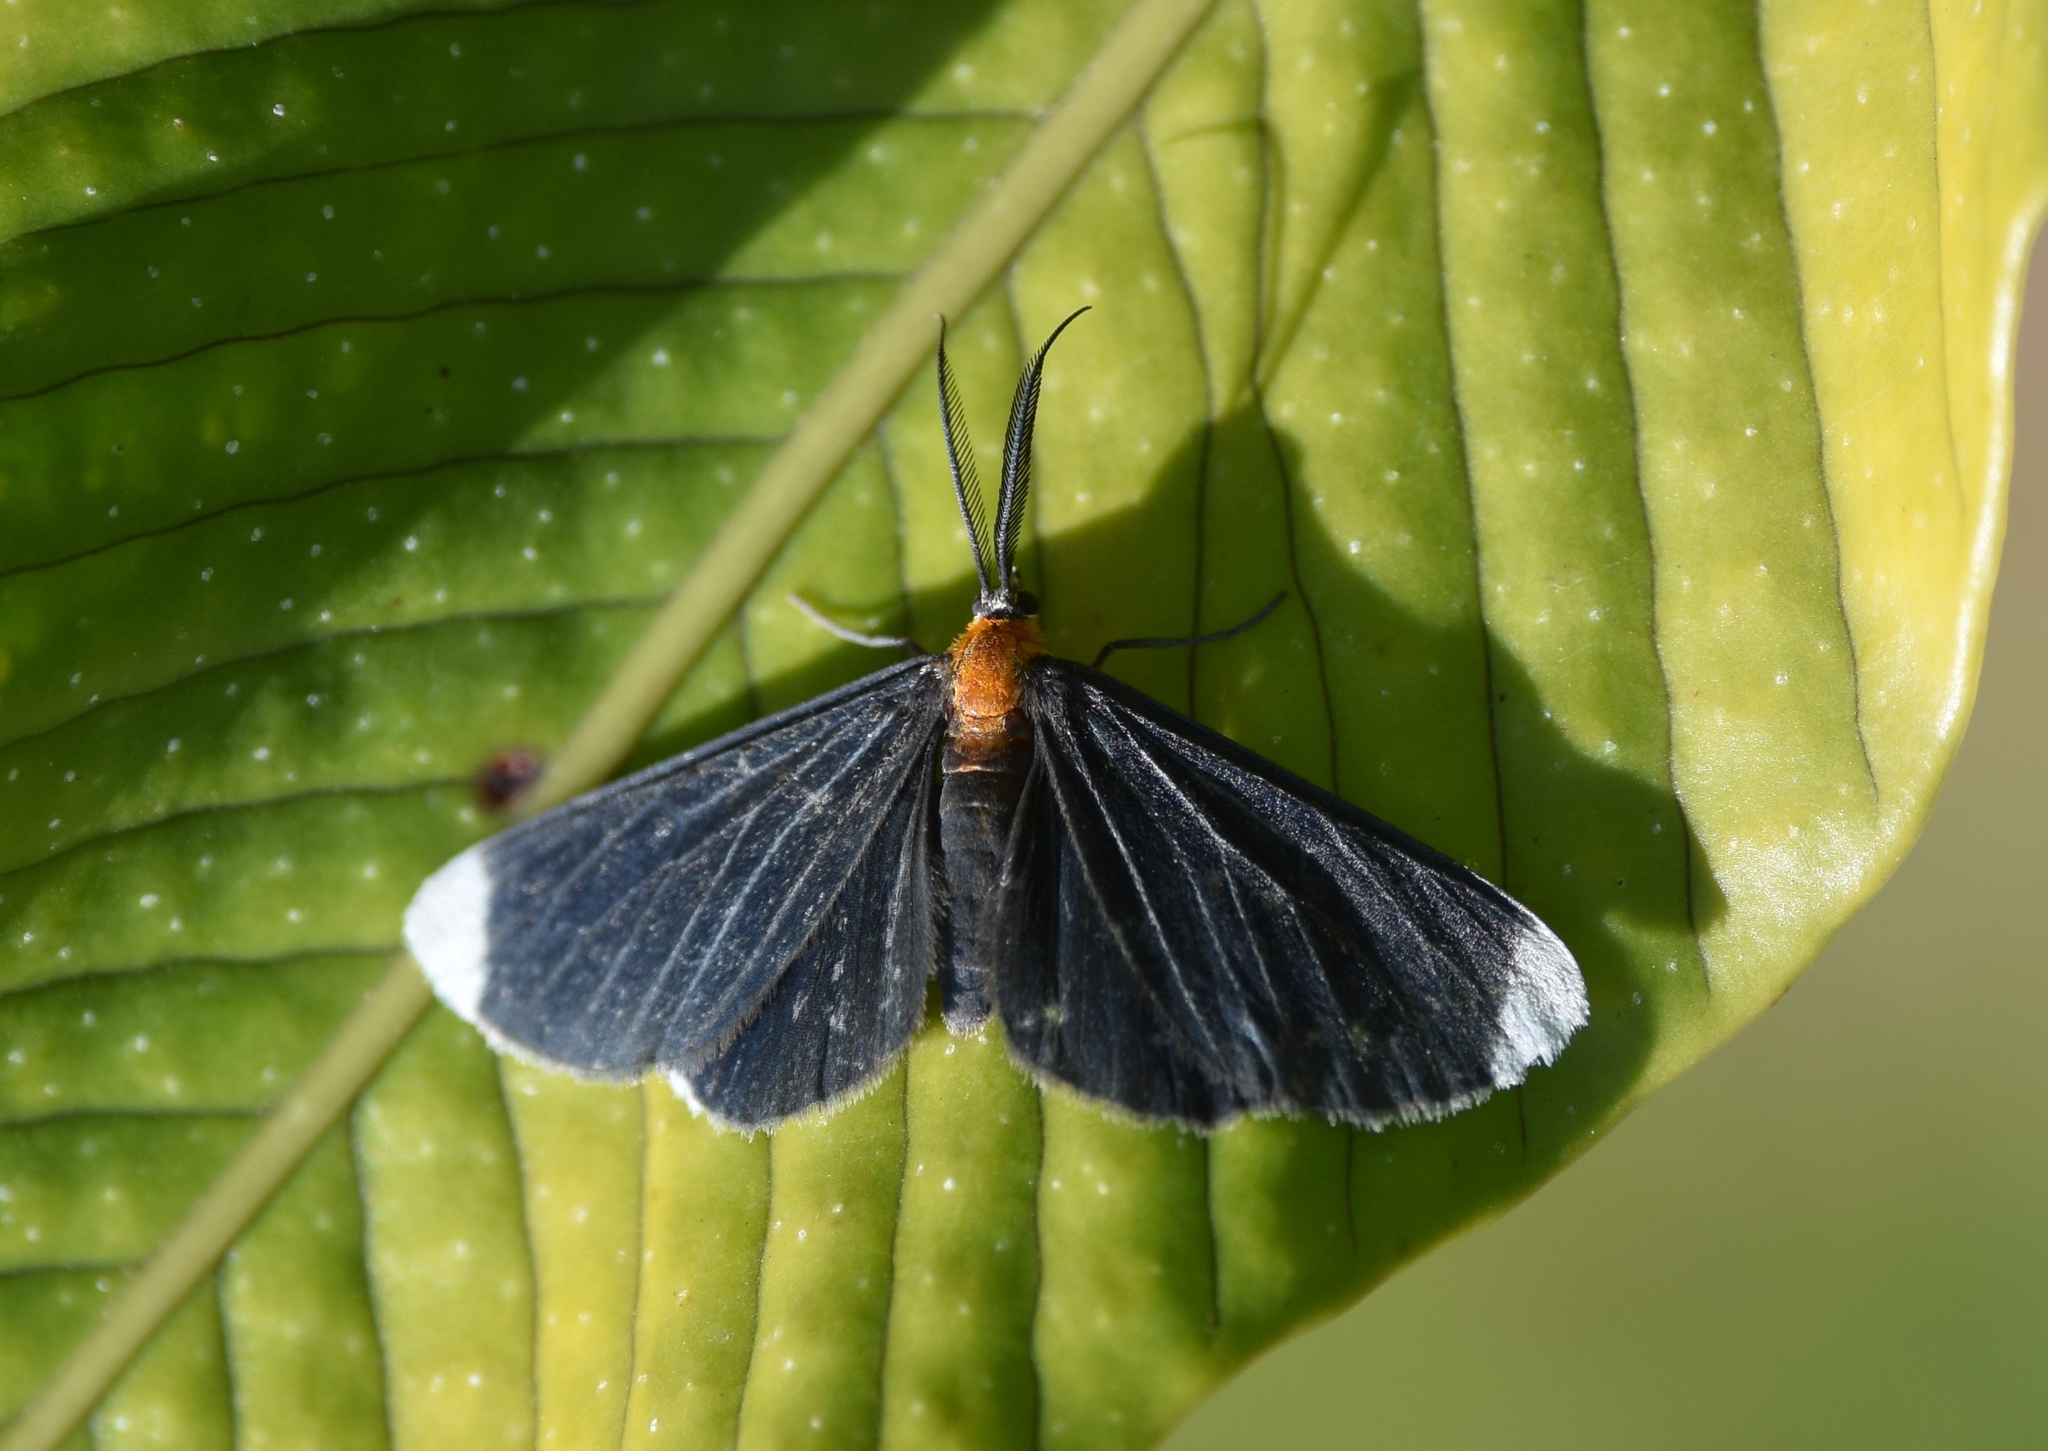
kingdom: Animalia
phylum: Arthropoda
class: Insecta
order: Lepidoptera
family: Geometridae
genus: Melanchroia
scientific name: Melanchroia chephise
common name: White-tipped black
